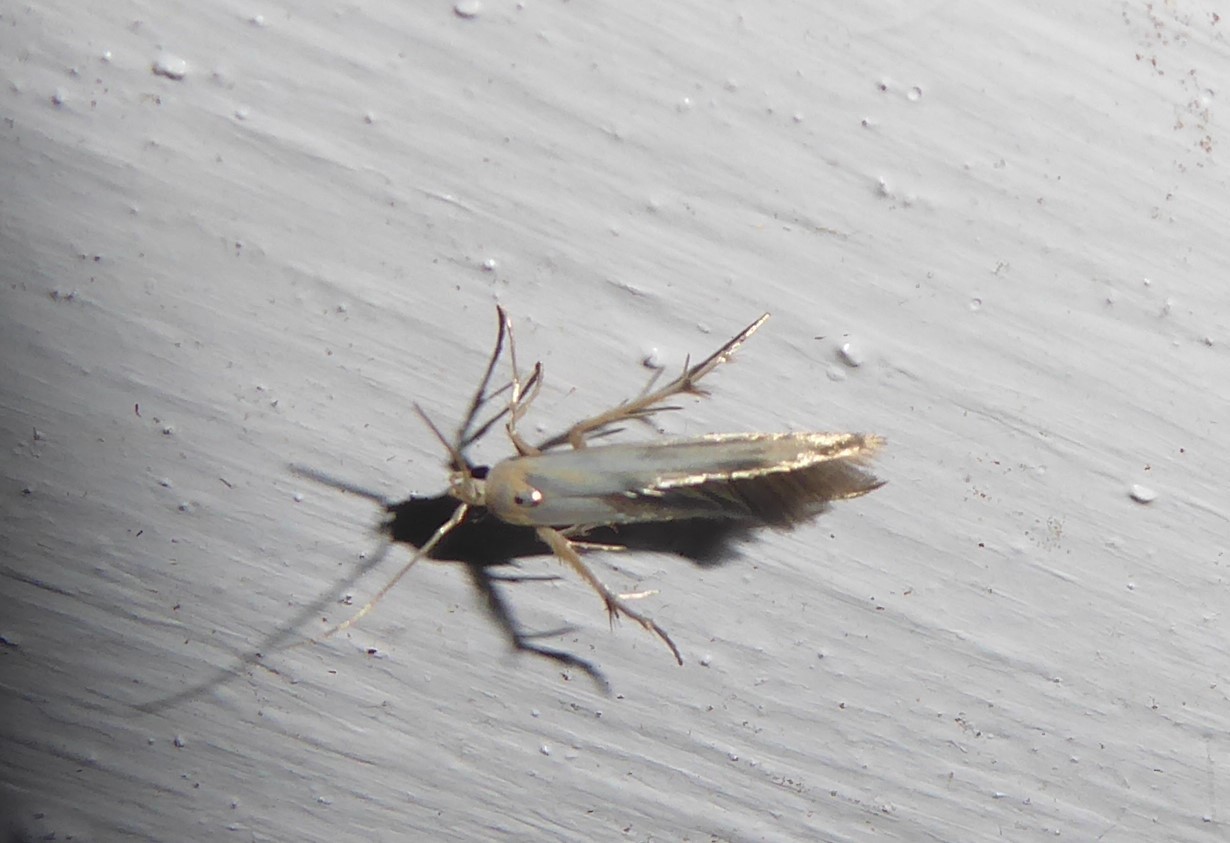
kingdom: Animalia
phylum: Arthropoda
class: Insecta
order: Lepidoptera
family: Stathmopodidae
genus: Stathmopoda
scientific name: Stathmopoda horticola
